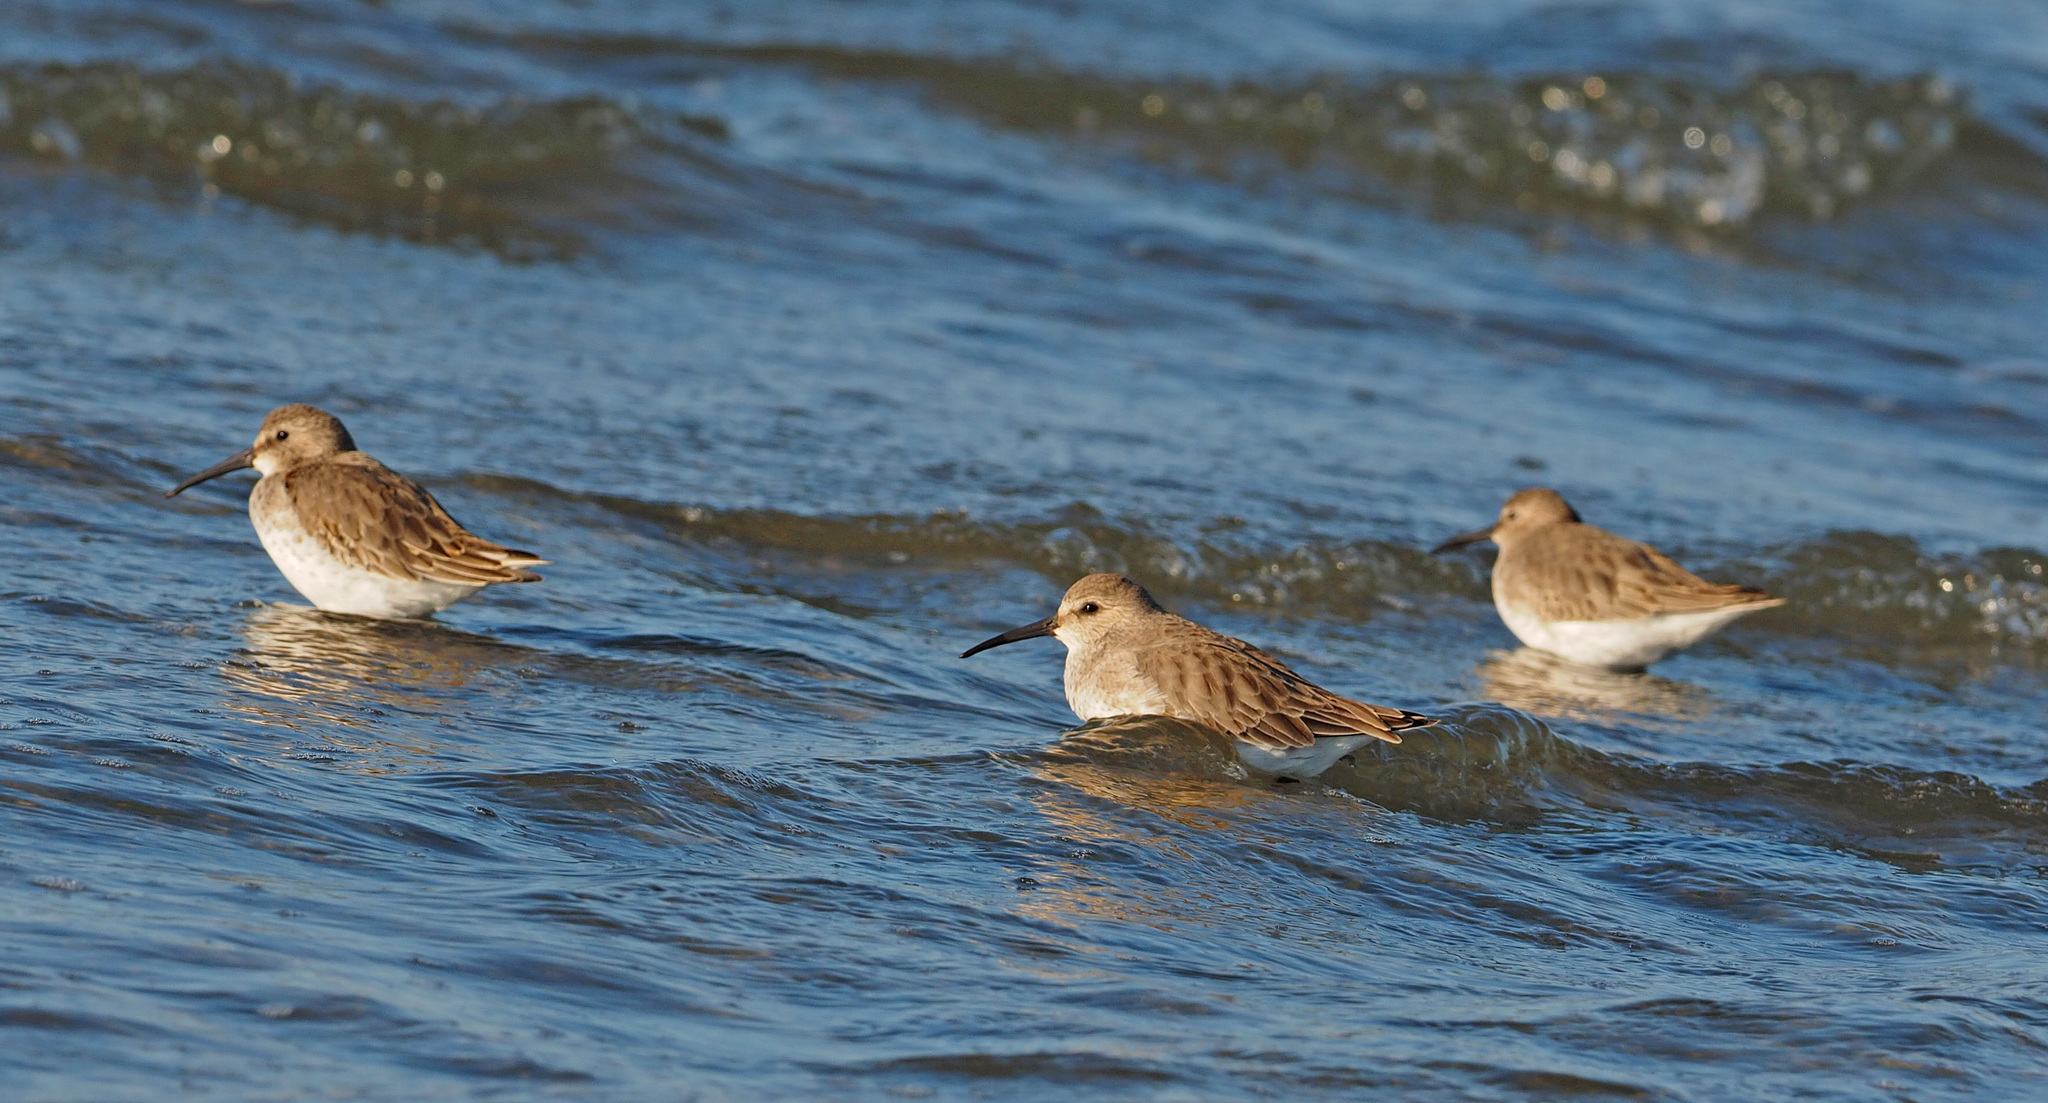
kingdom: Animalia
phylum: Chordata
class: Aves
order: Charadriiformes
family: Scolopacidae
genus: Calidris
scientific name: Calidris alpina
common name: Dunlin
